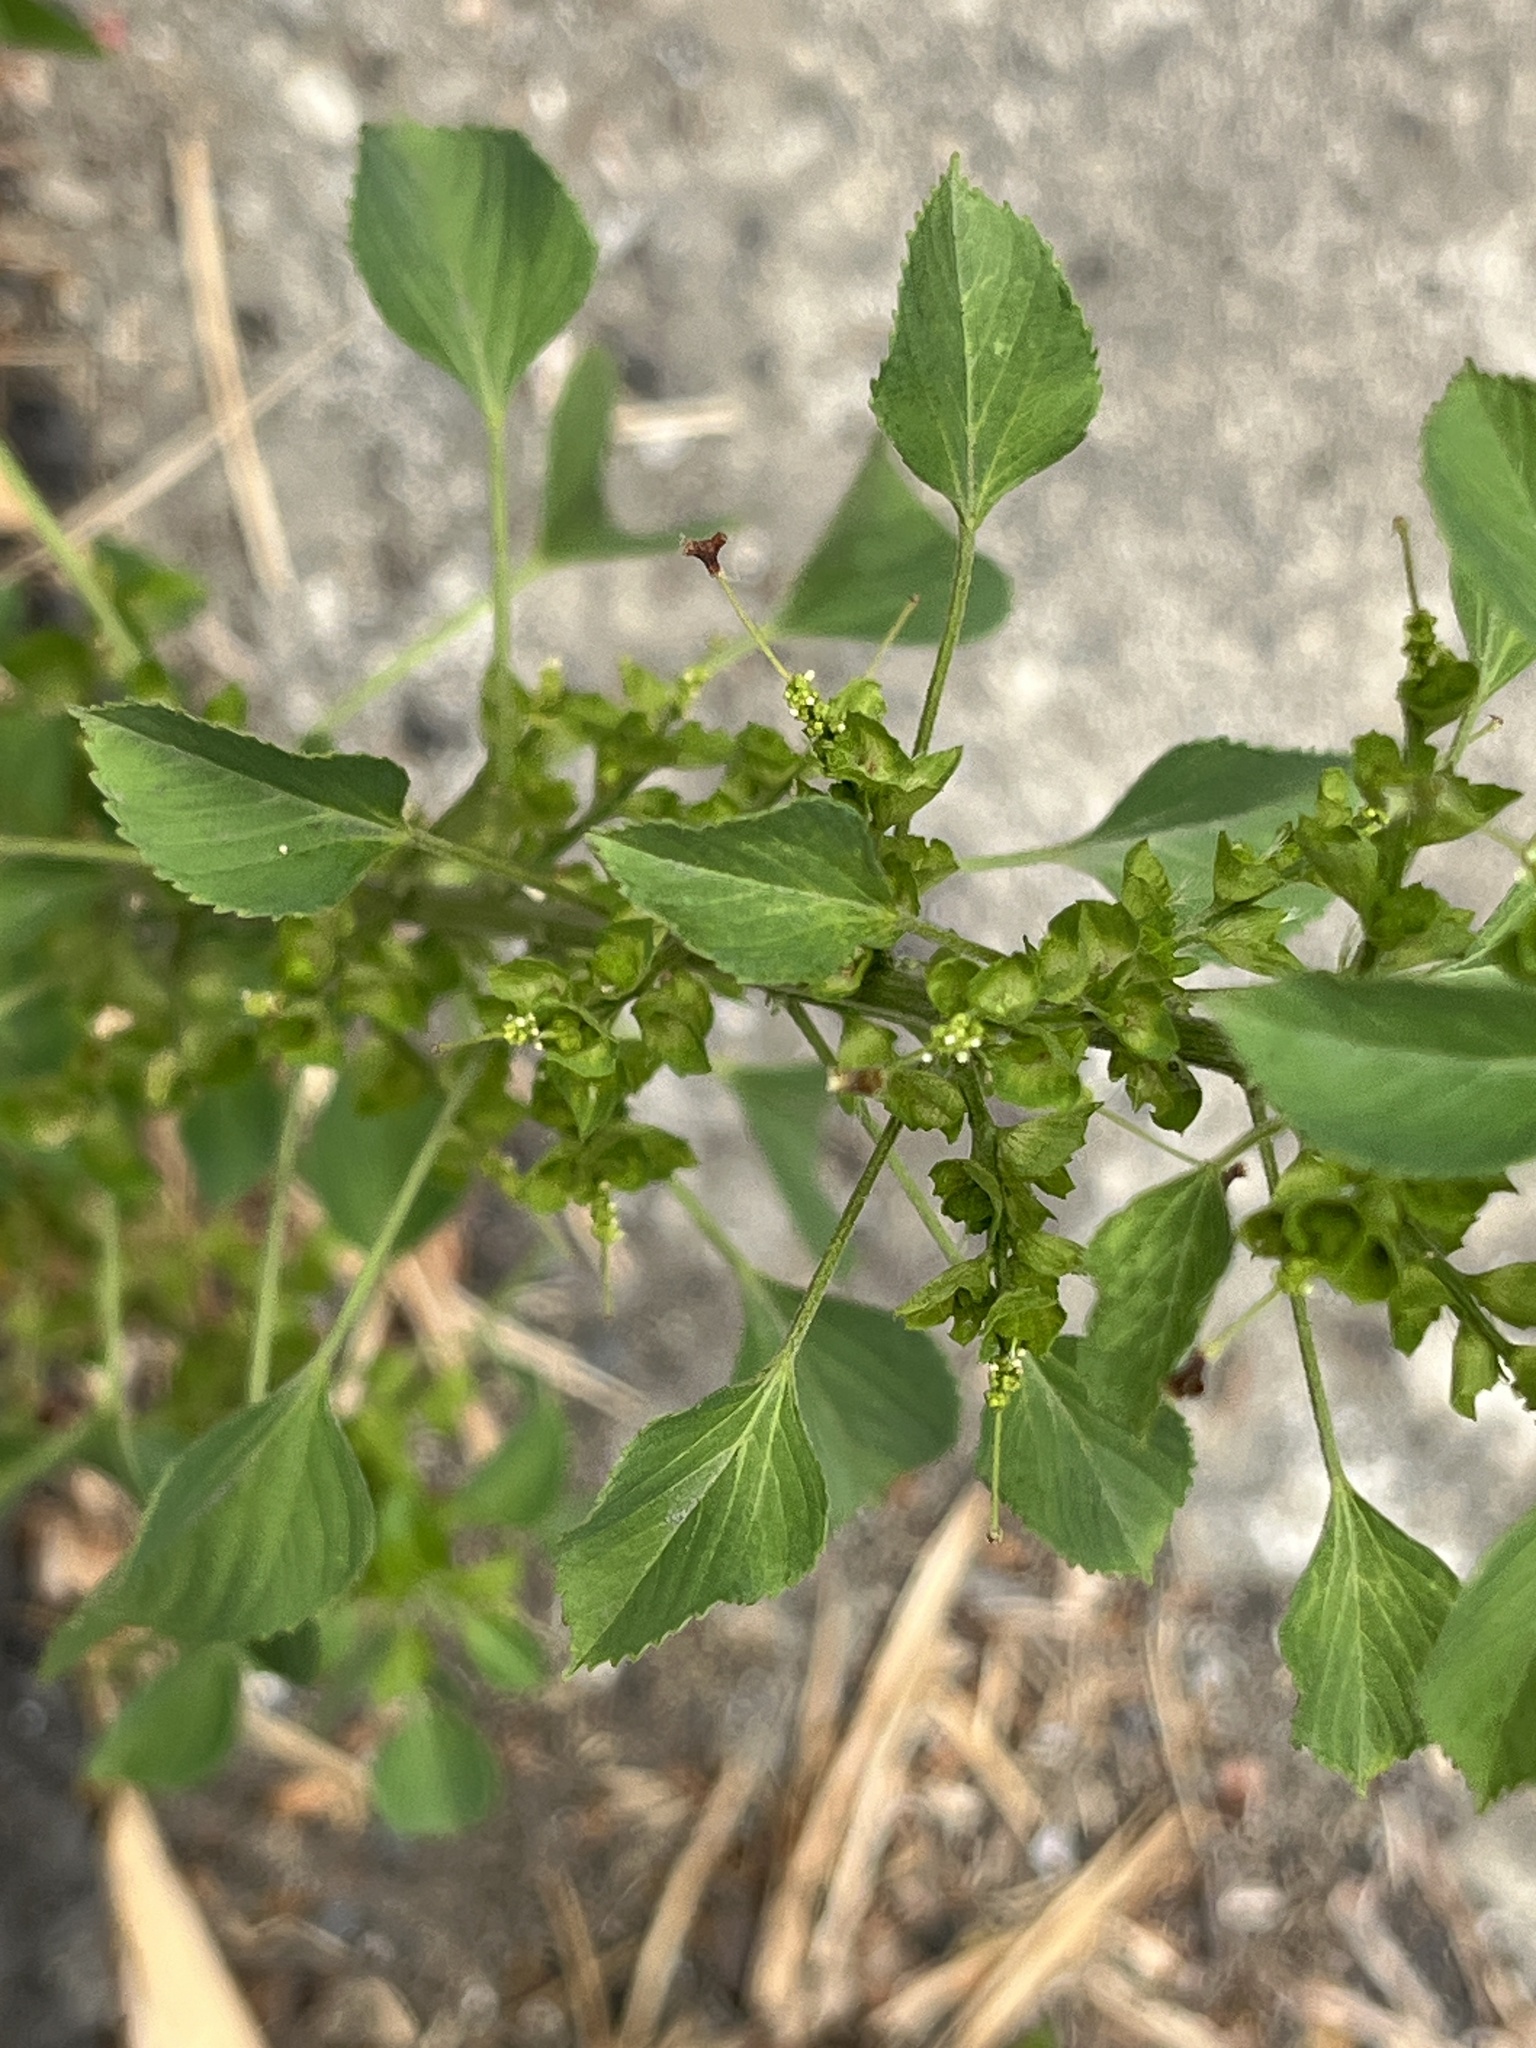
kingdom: Plantae
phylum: Tracheophyta
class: Magnoliopsida
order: Malpighiales
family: Euphorbiaceae
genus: Acalypha
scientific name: Acalypha indica
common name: Indian acalypha
